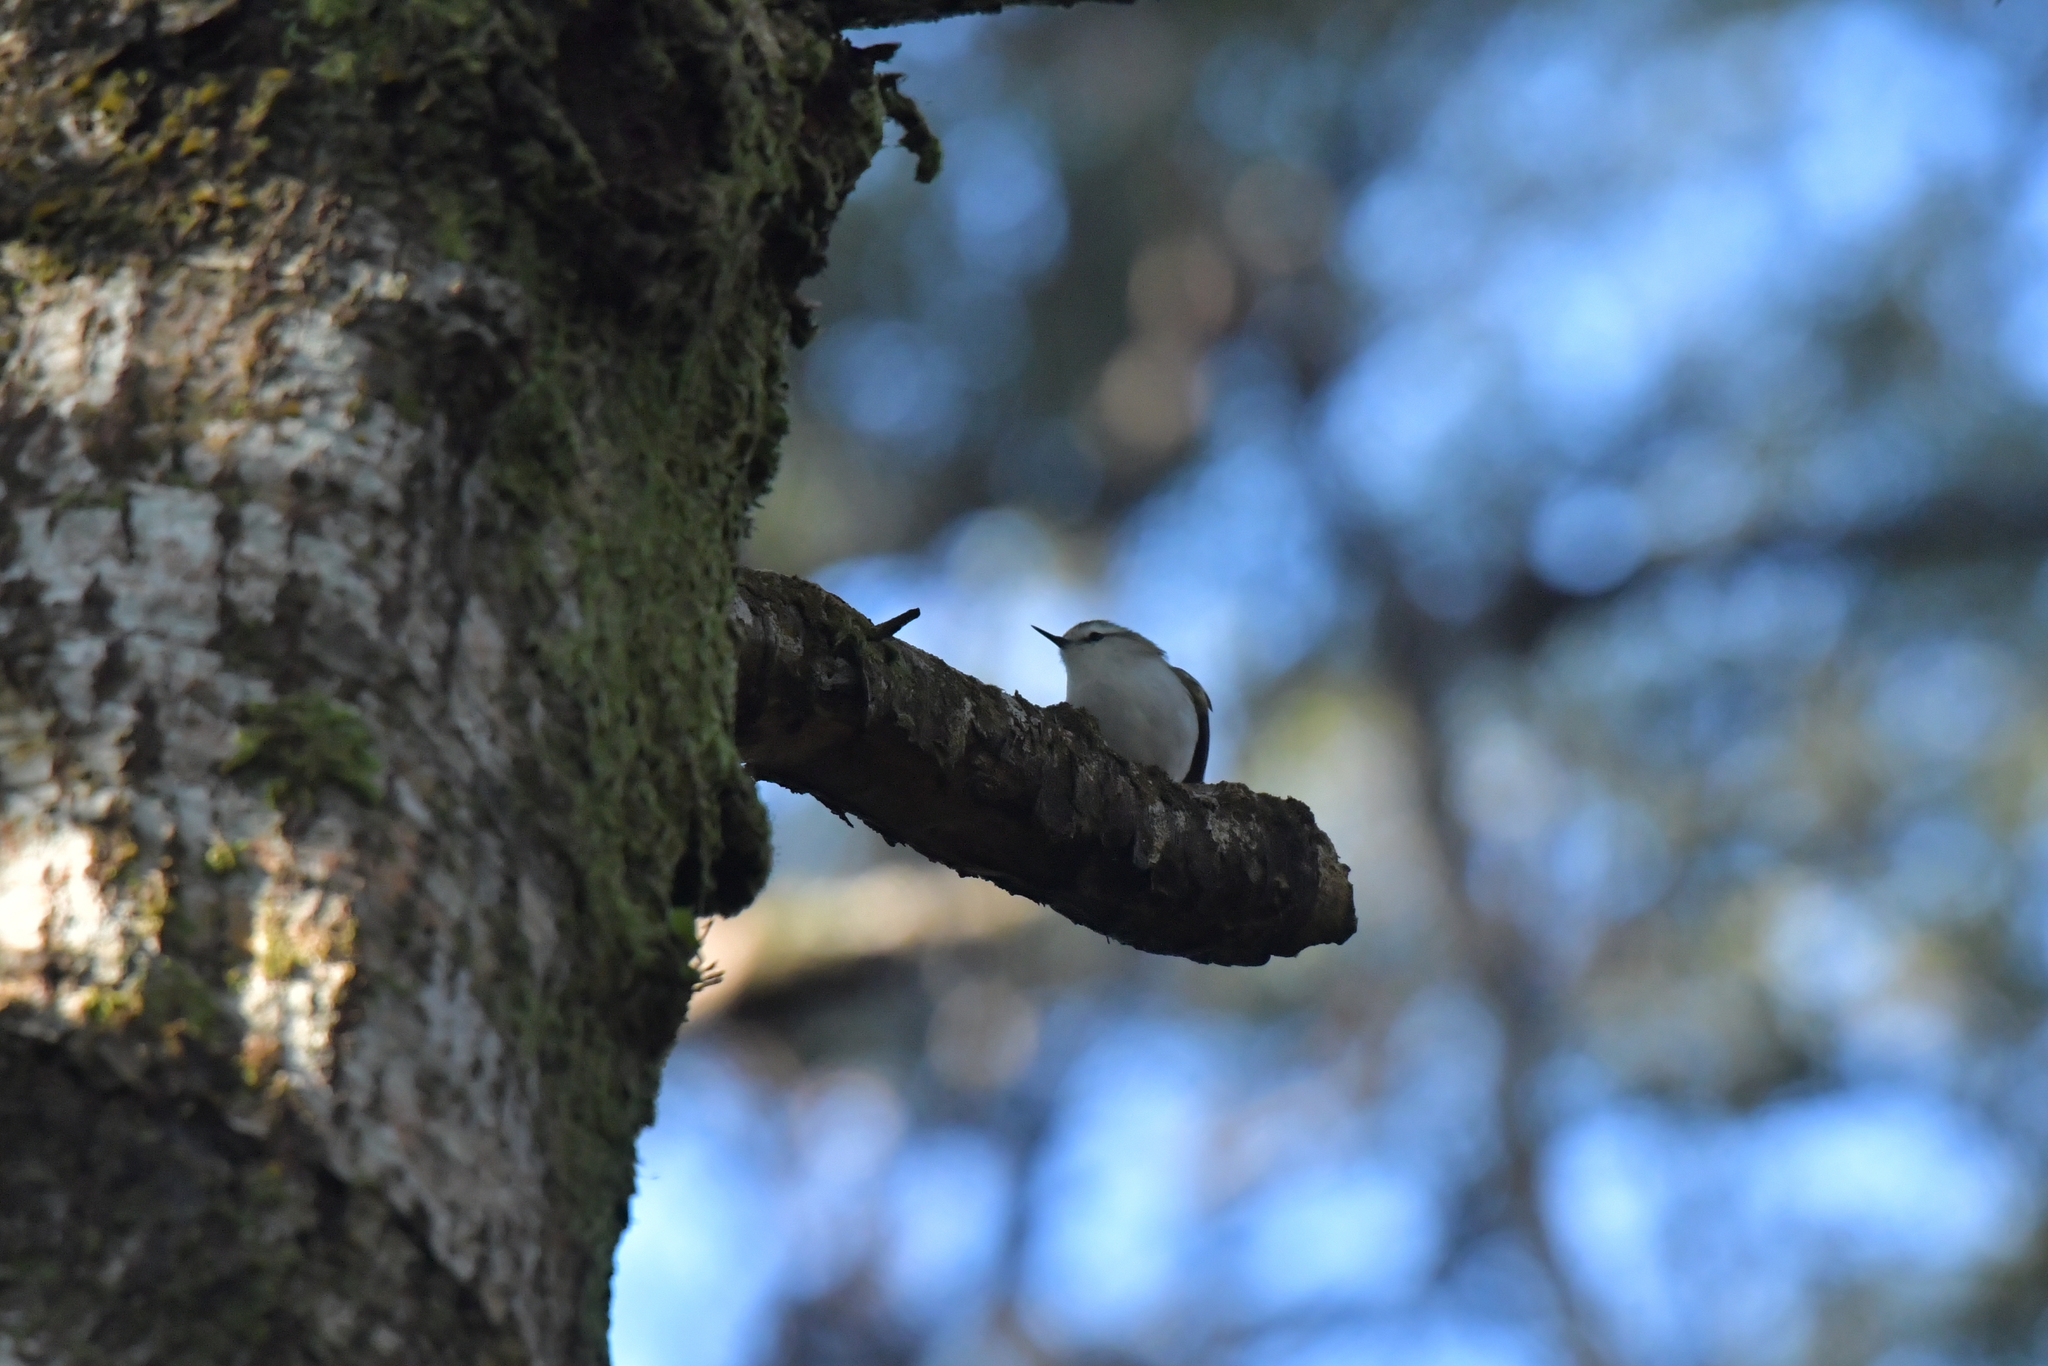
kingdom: Animalia
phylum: Chordata
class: Aves
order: Passeriformes
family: Acanthisittidae
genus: Acanthisitta
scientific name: Acanthisitta chloris
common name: Rifleman
